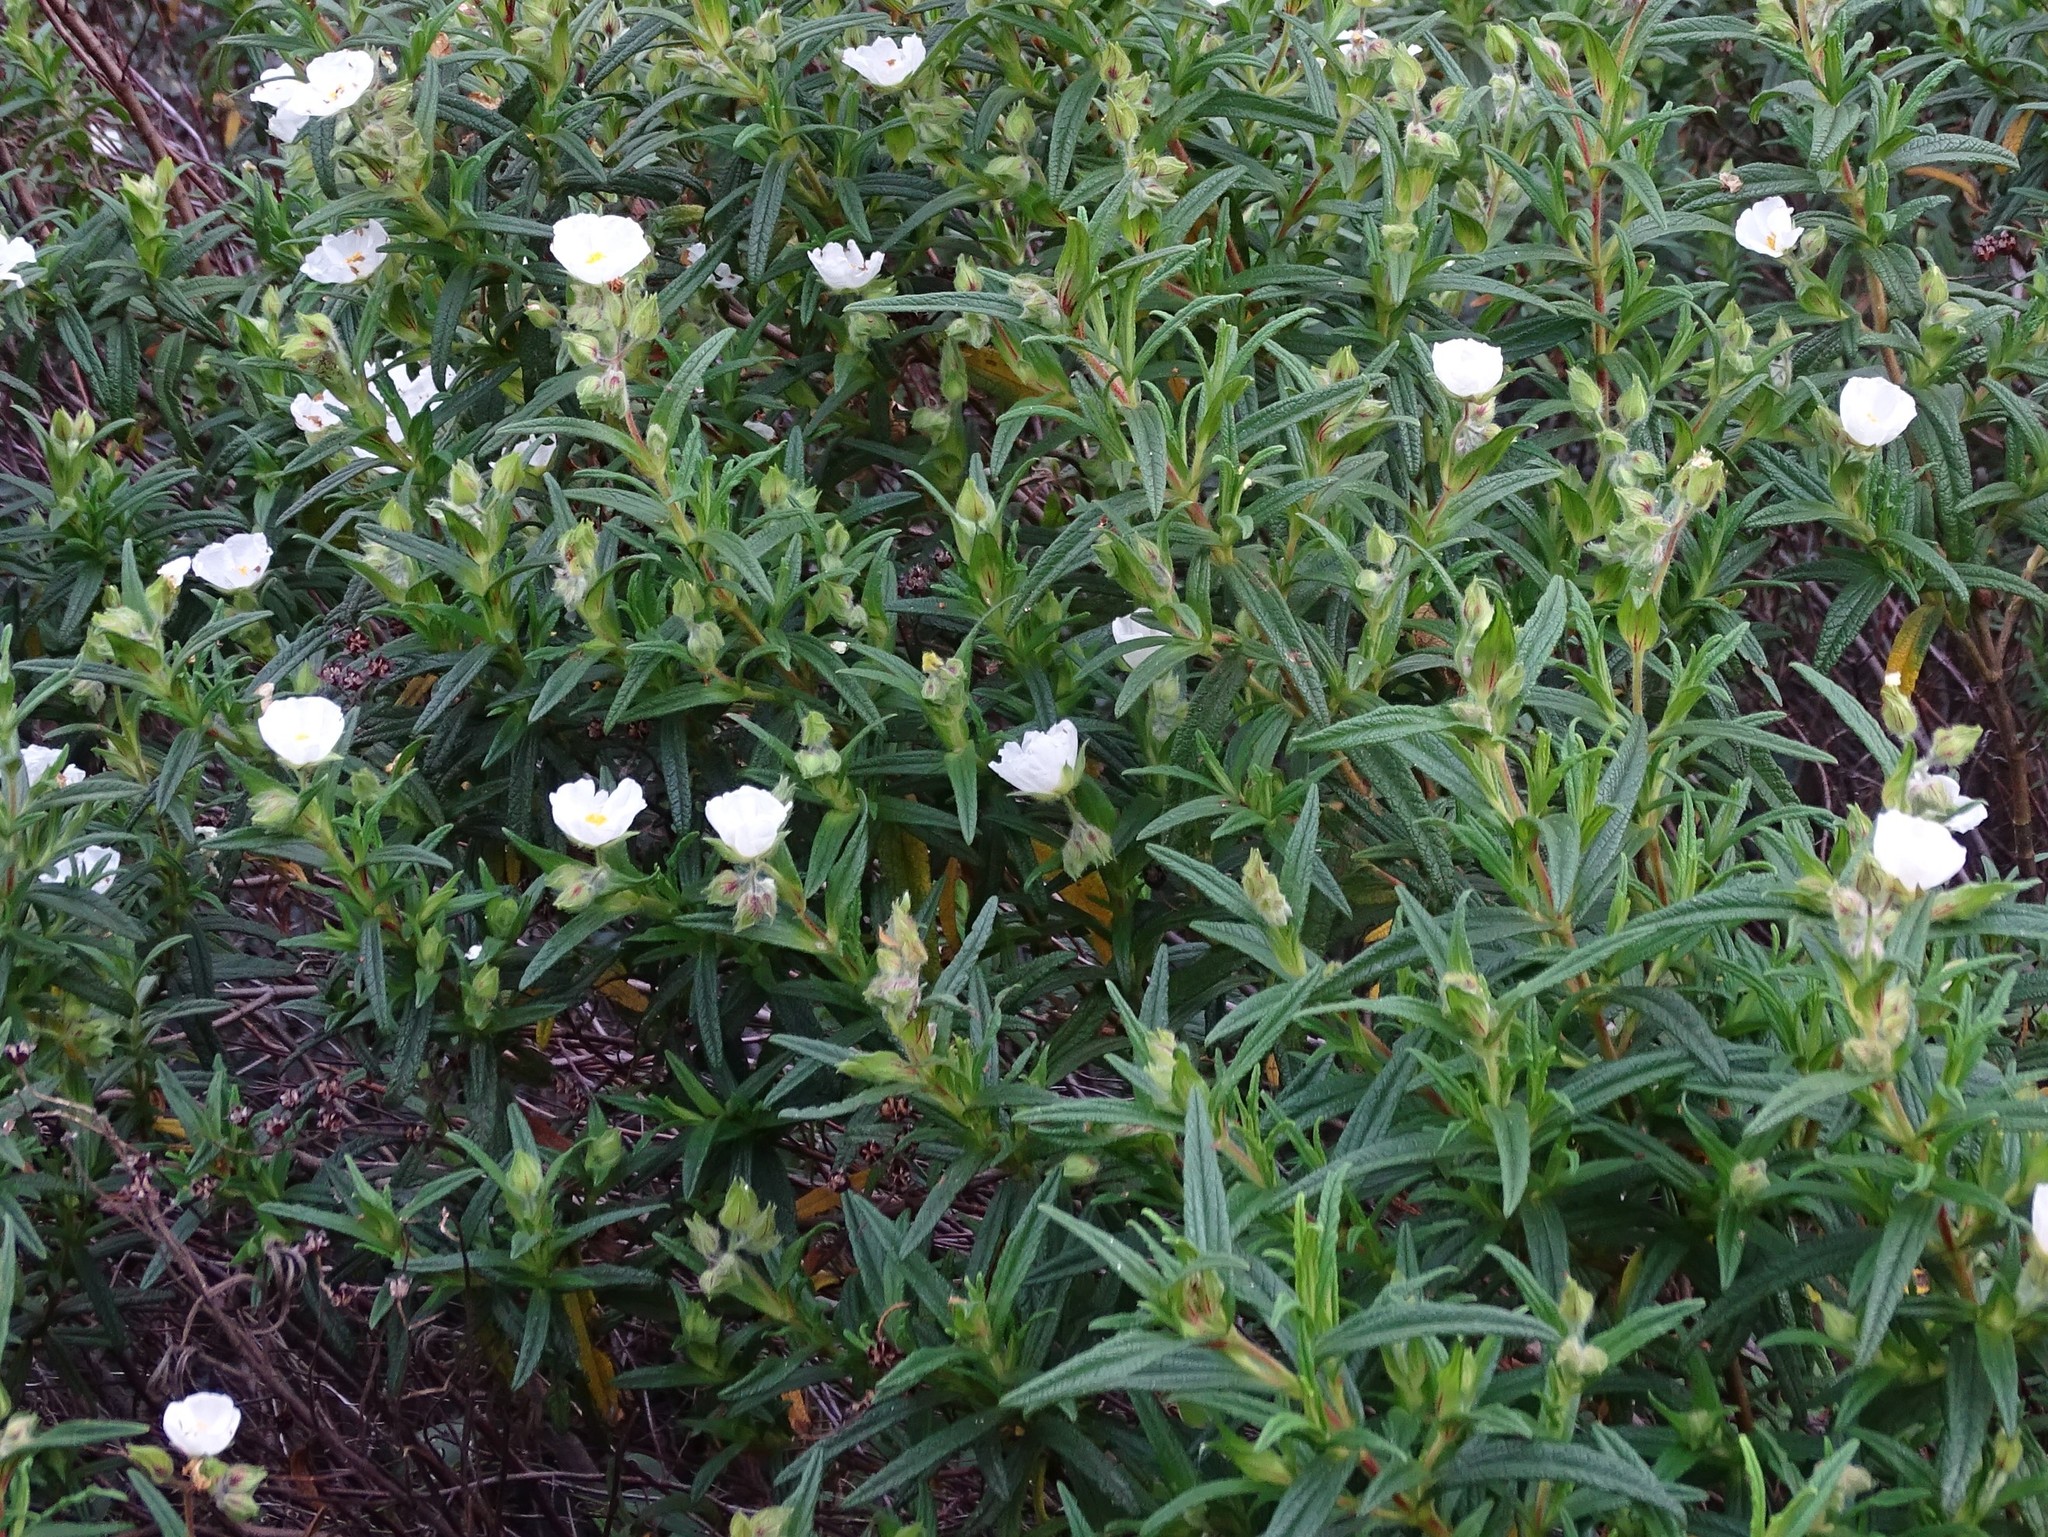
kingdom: Plantae
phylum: Tracheophyta
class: Magnoliopsida
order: Malvales
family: Cistaceae
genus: Cistus
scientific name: Cistus monspeliensis
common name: Montpelier cistus
